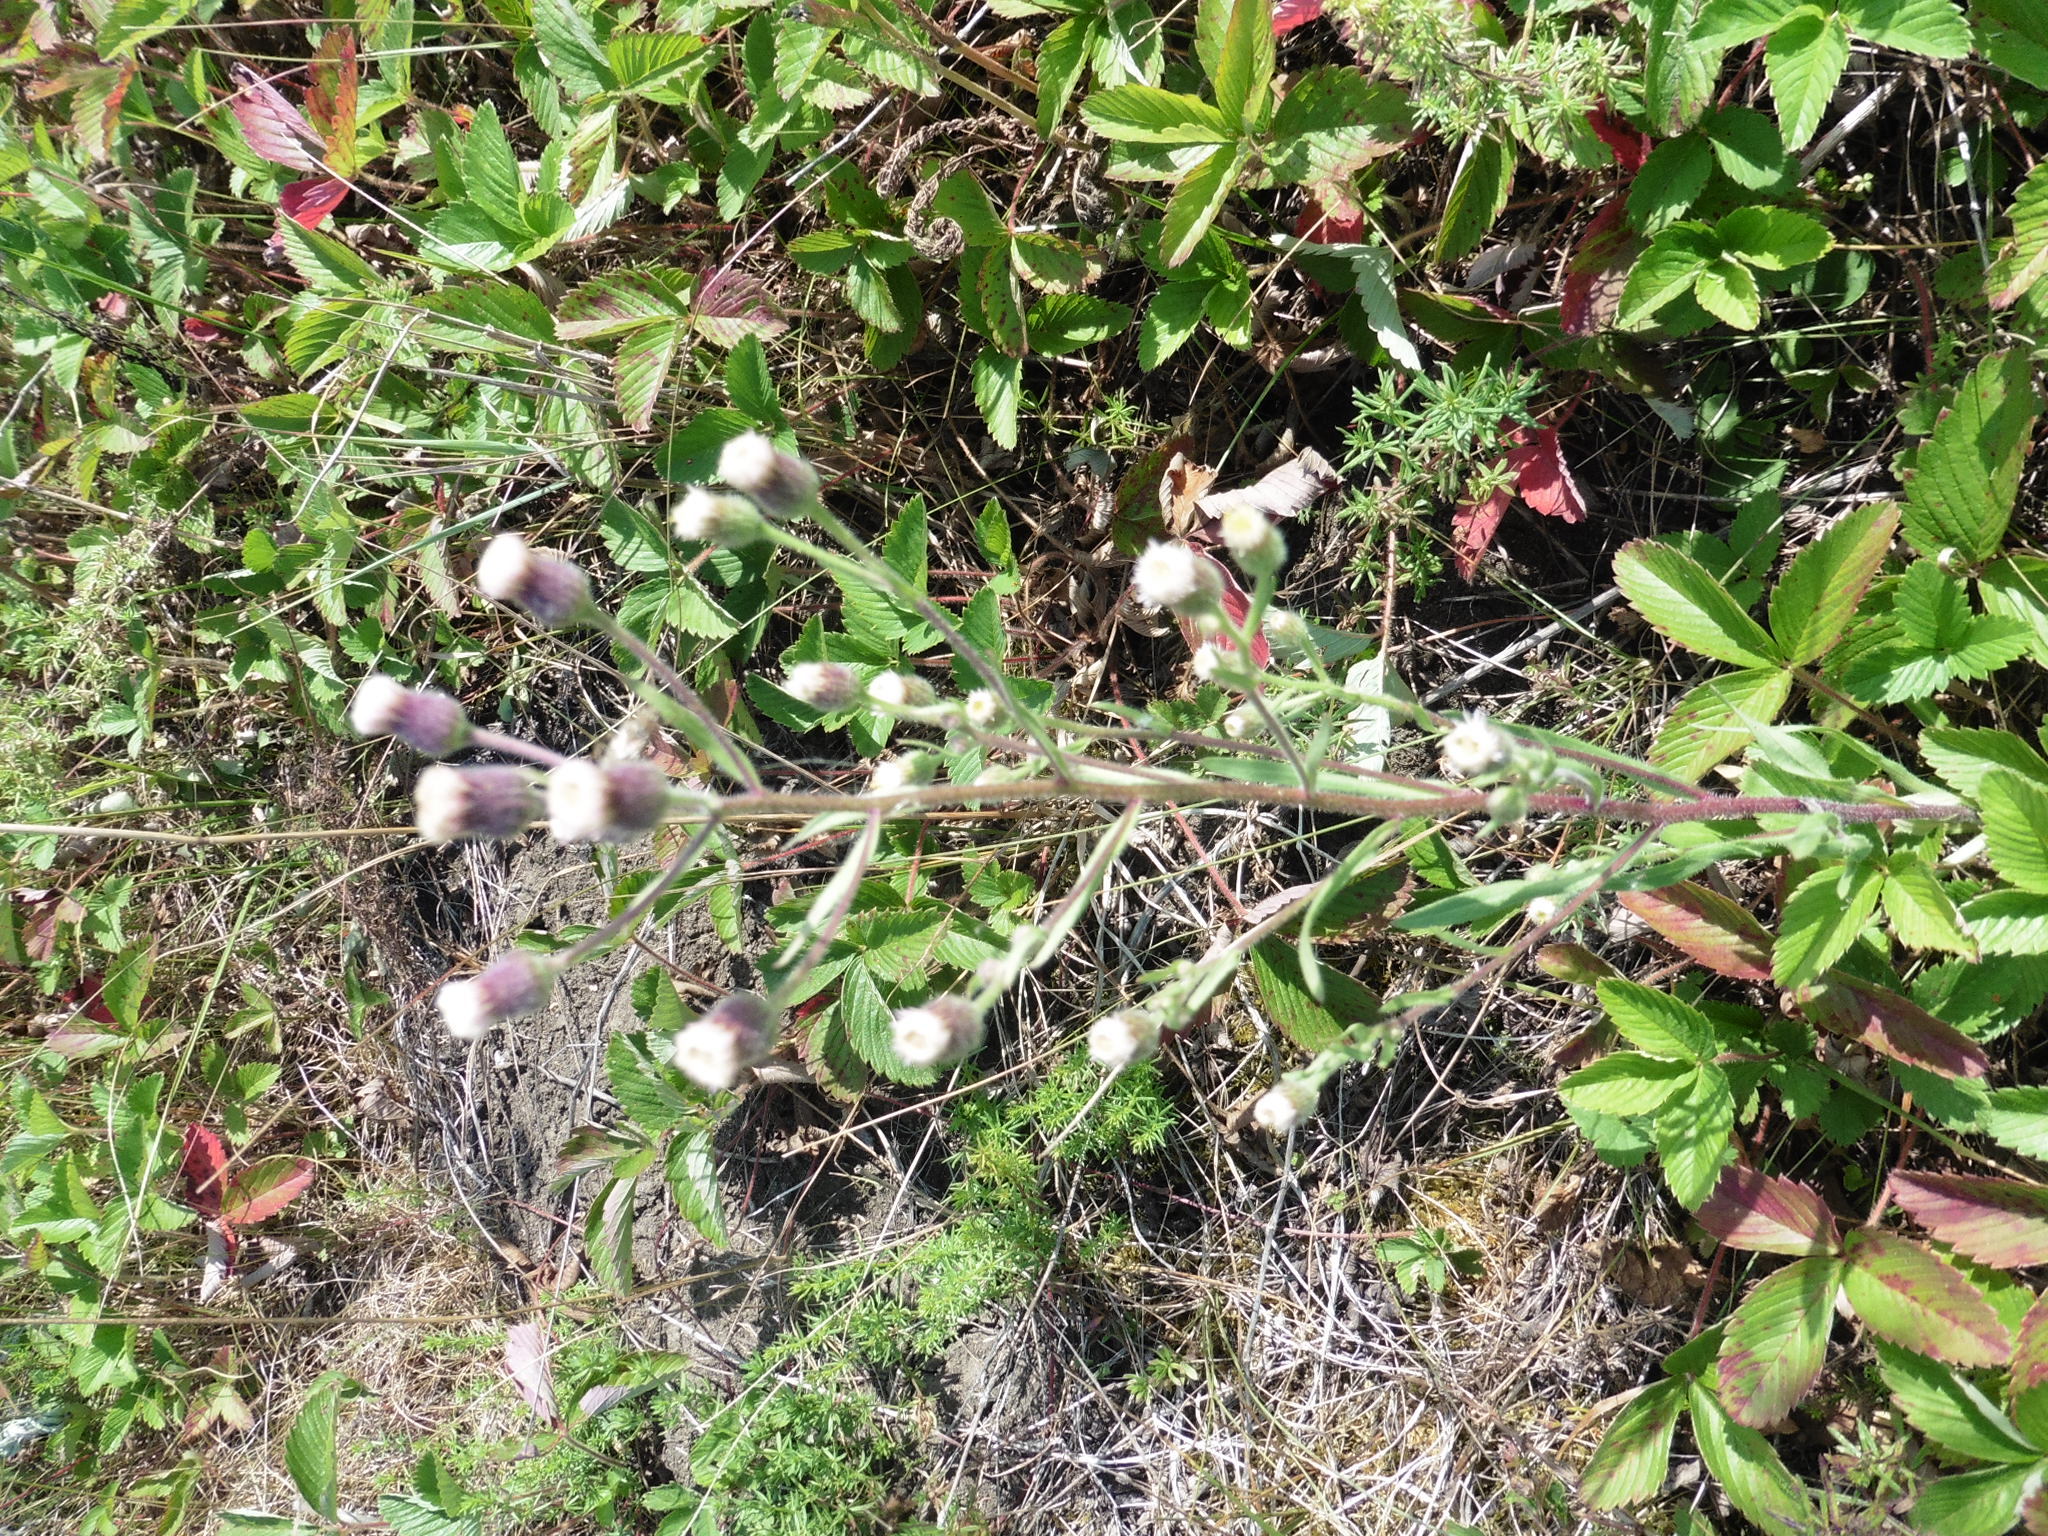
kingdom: Plantae
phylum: Tracheophyta
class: Magnoliopsida
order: Asterales
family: Asteraceae
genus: Erigeron
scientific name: Erigeron acris
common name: Blue fleabane
